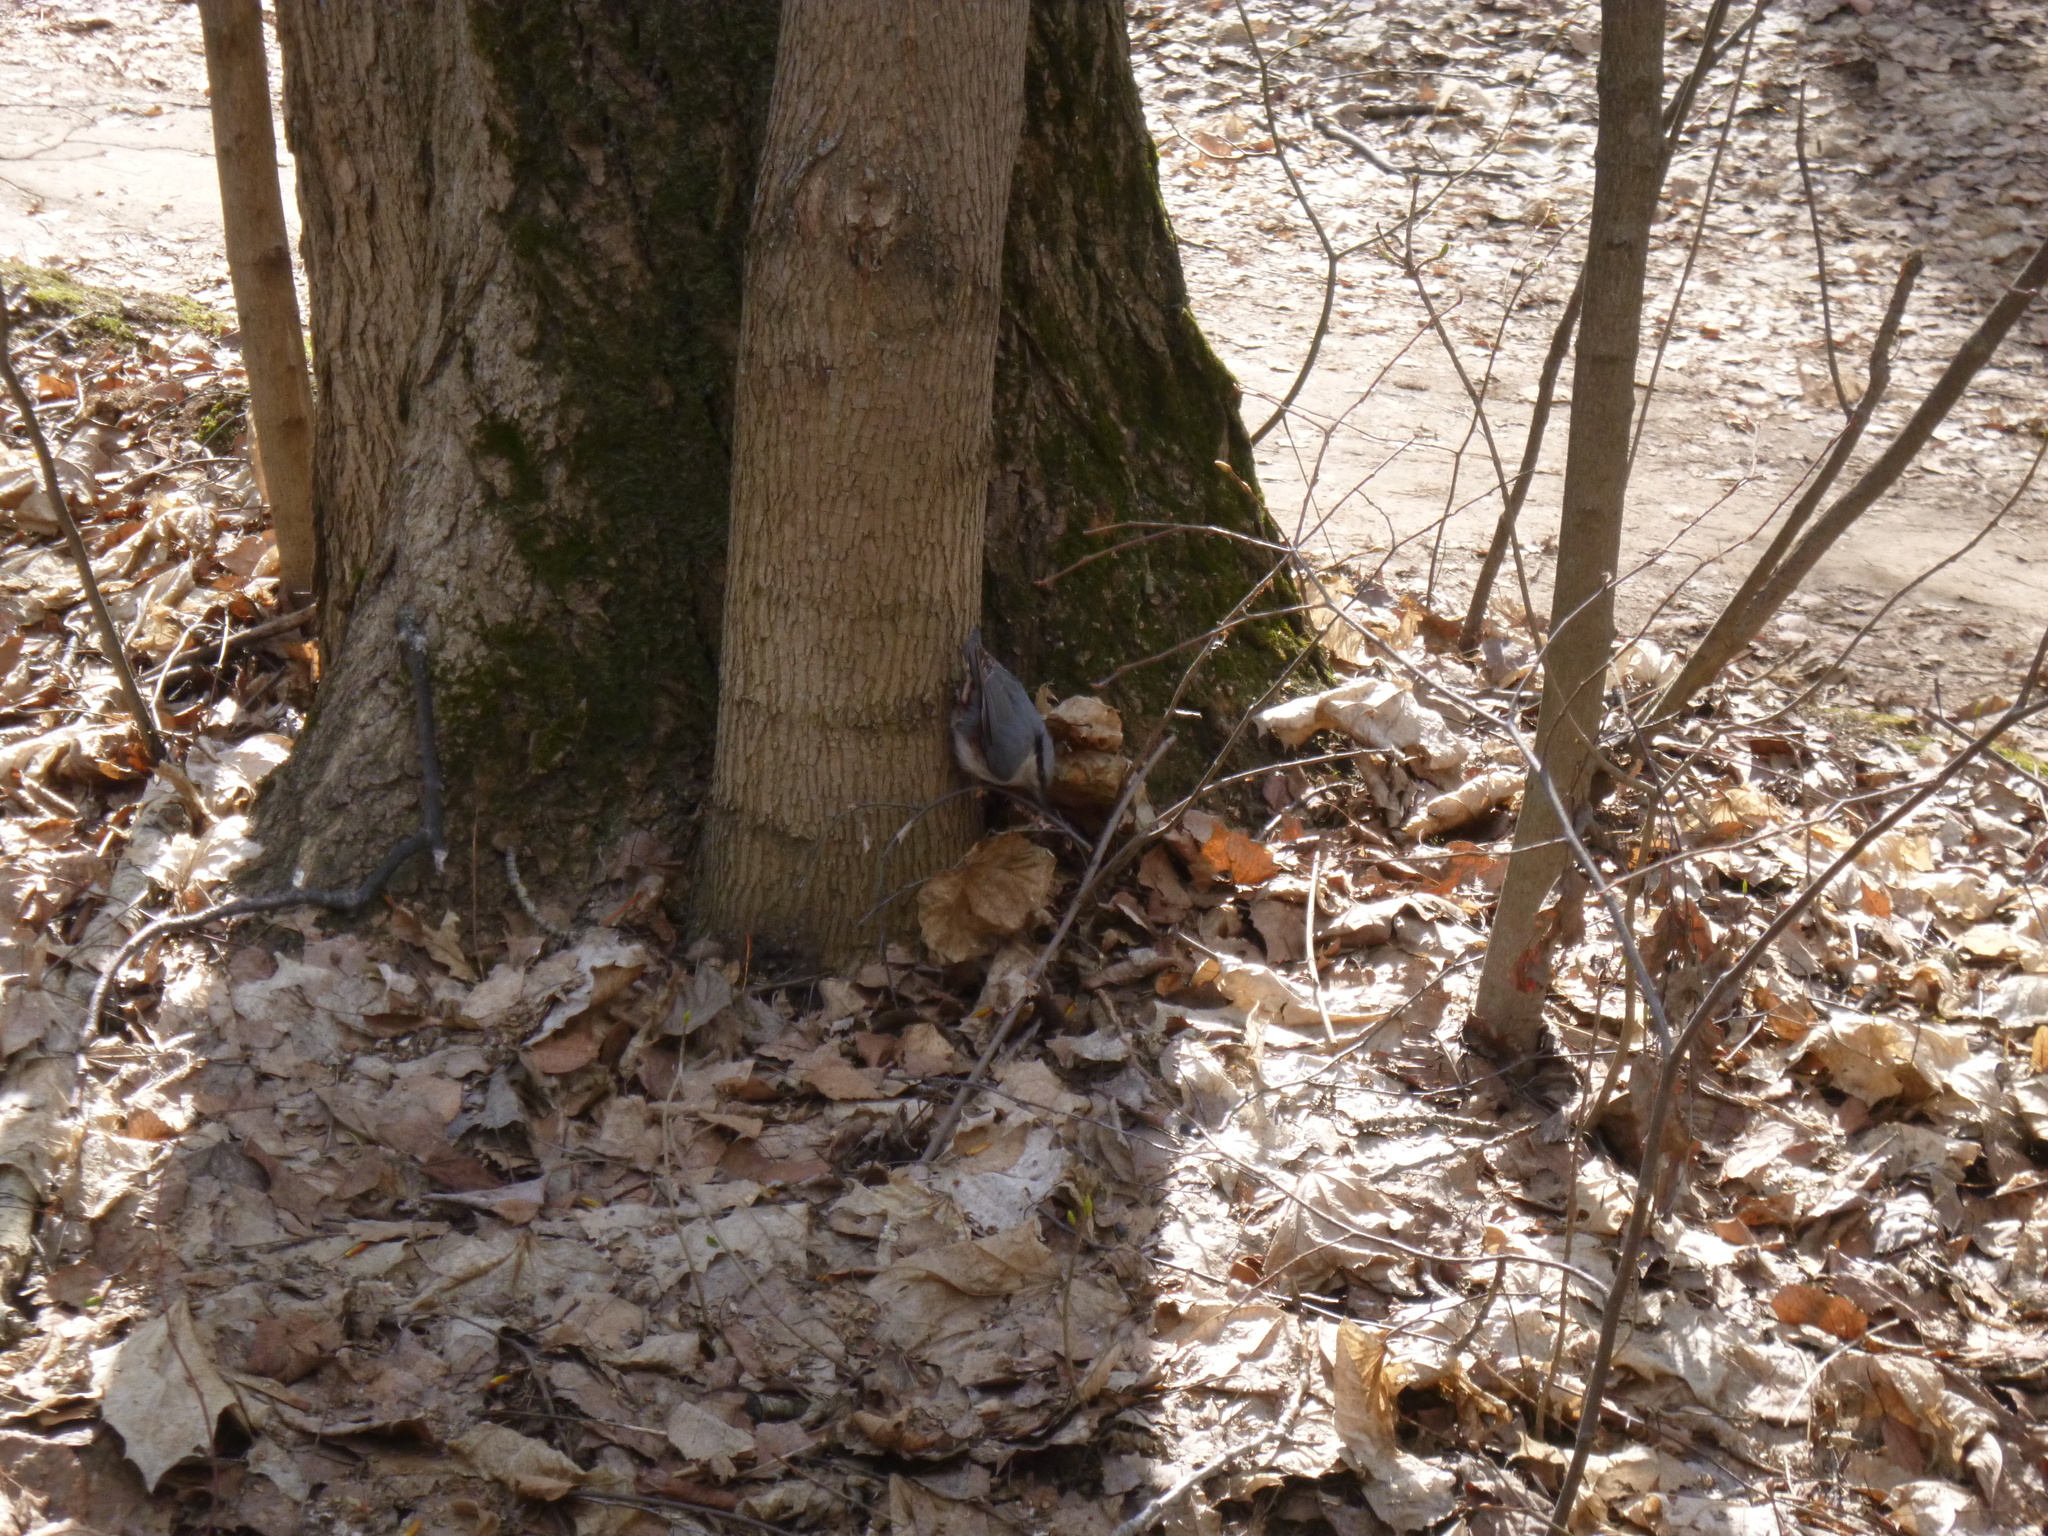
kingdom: Animalia
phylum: Chordata
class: Aves
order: Passeriformes
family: Sittidae
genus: Sitta
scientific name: Sitta europaea
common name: Eurasian nuthatch
